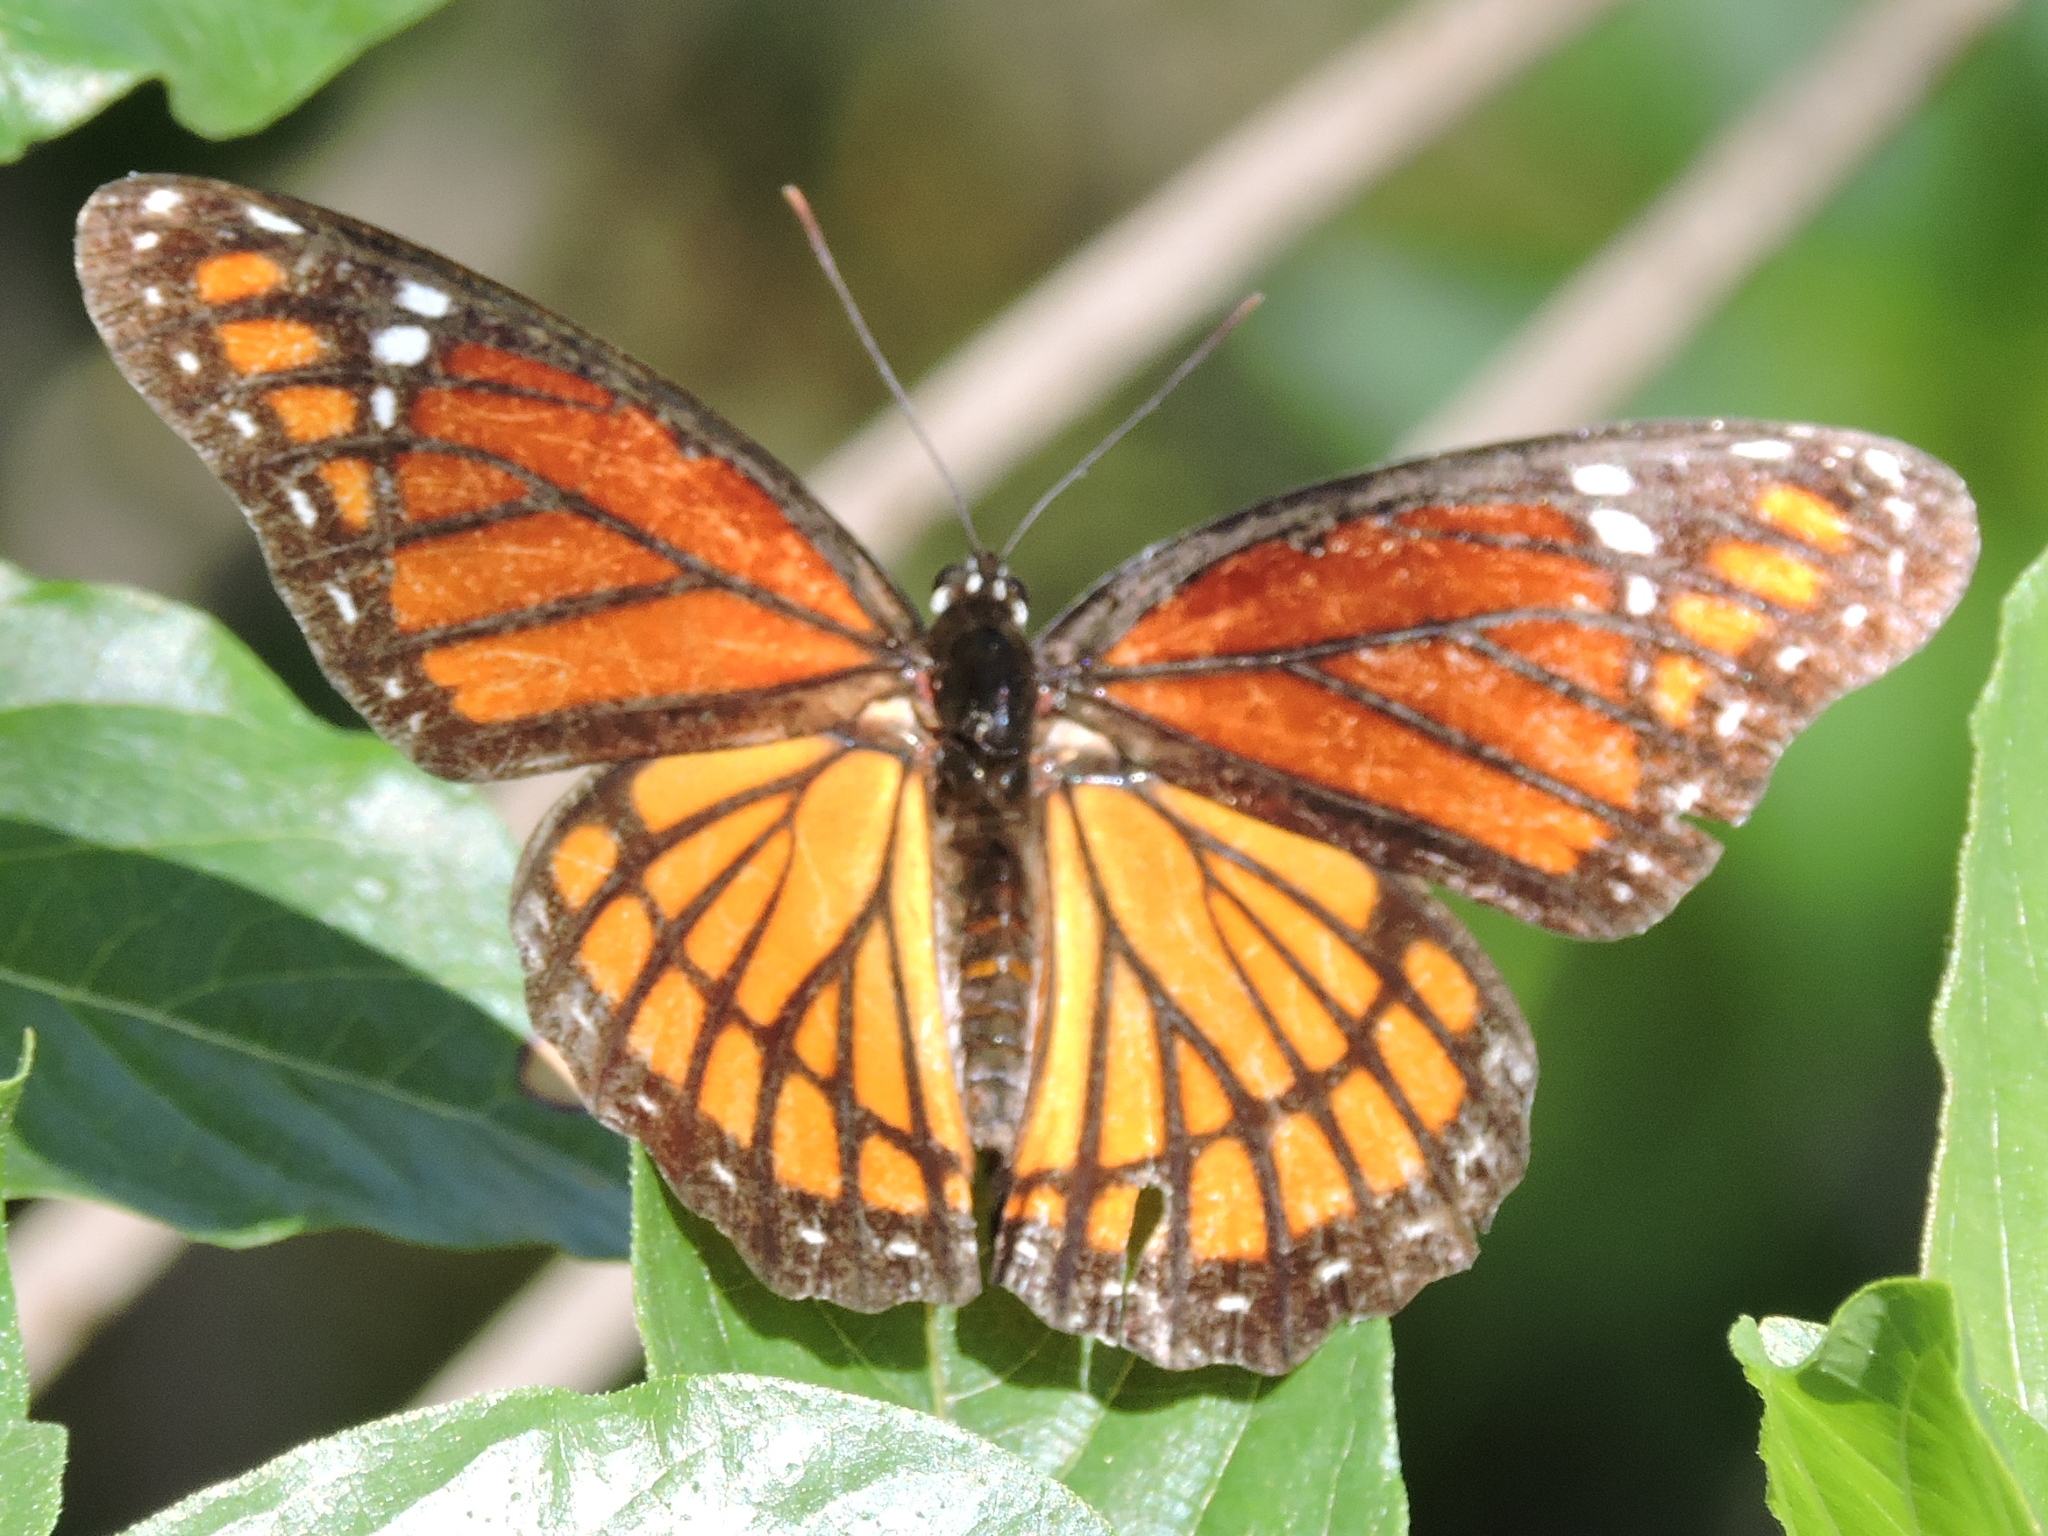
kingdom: Animalia
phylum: Arthropoda
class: Insecta
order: Lepidoptera
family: Nymphalidae
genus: Limenitis
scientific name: Limenitis archippus
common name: Viceroy
